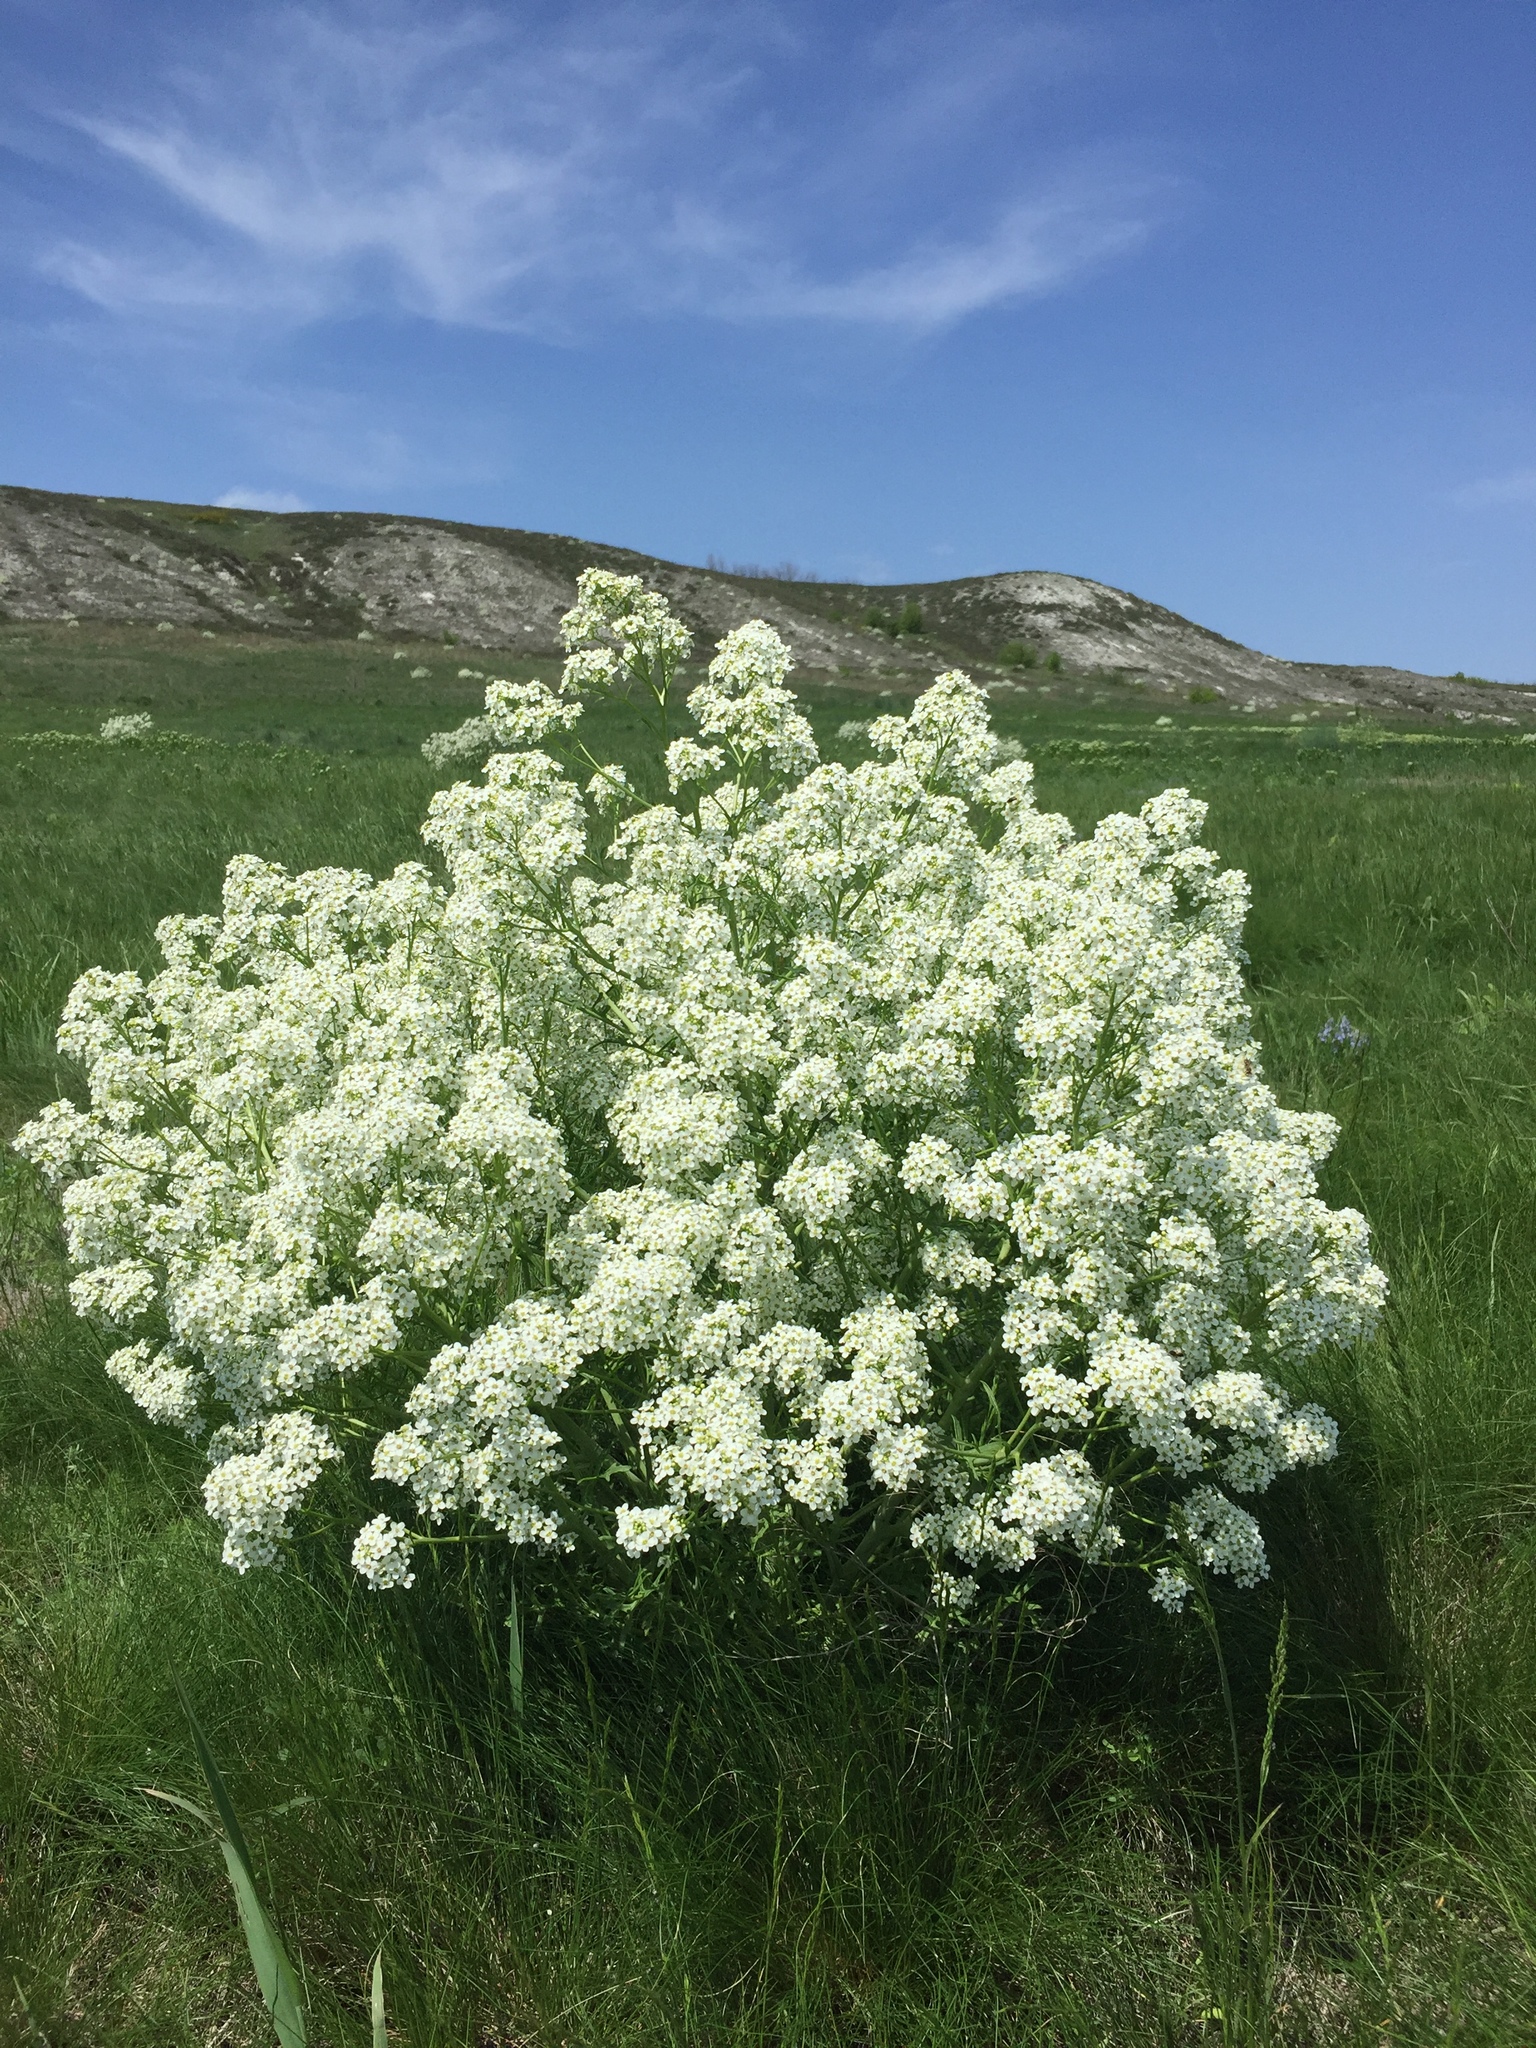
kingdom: Plantae
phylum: Tracheophyta
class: Magnoliopsida
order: Brassicales
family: Brassicaceae
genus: Crambe
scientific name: Crambe tataria
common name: Tartarian breadplant
